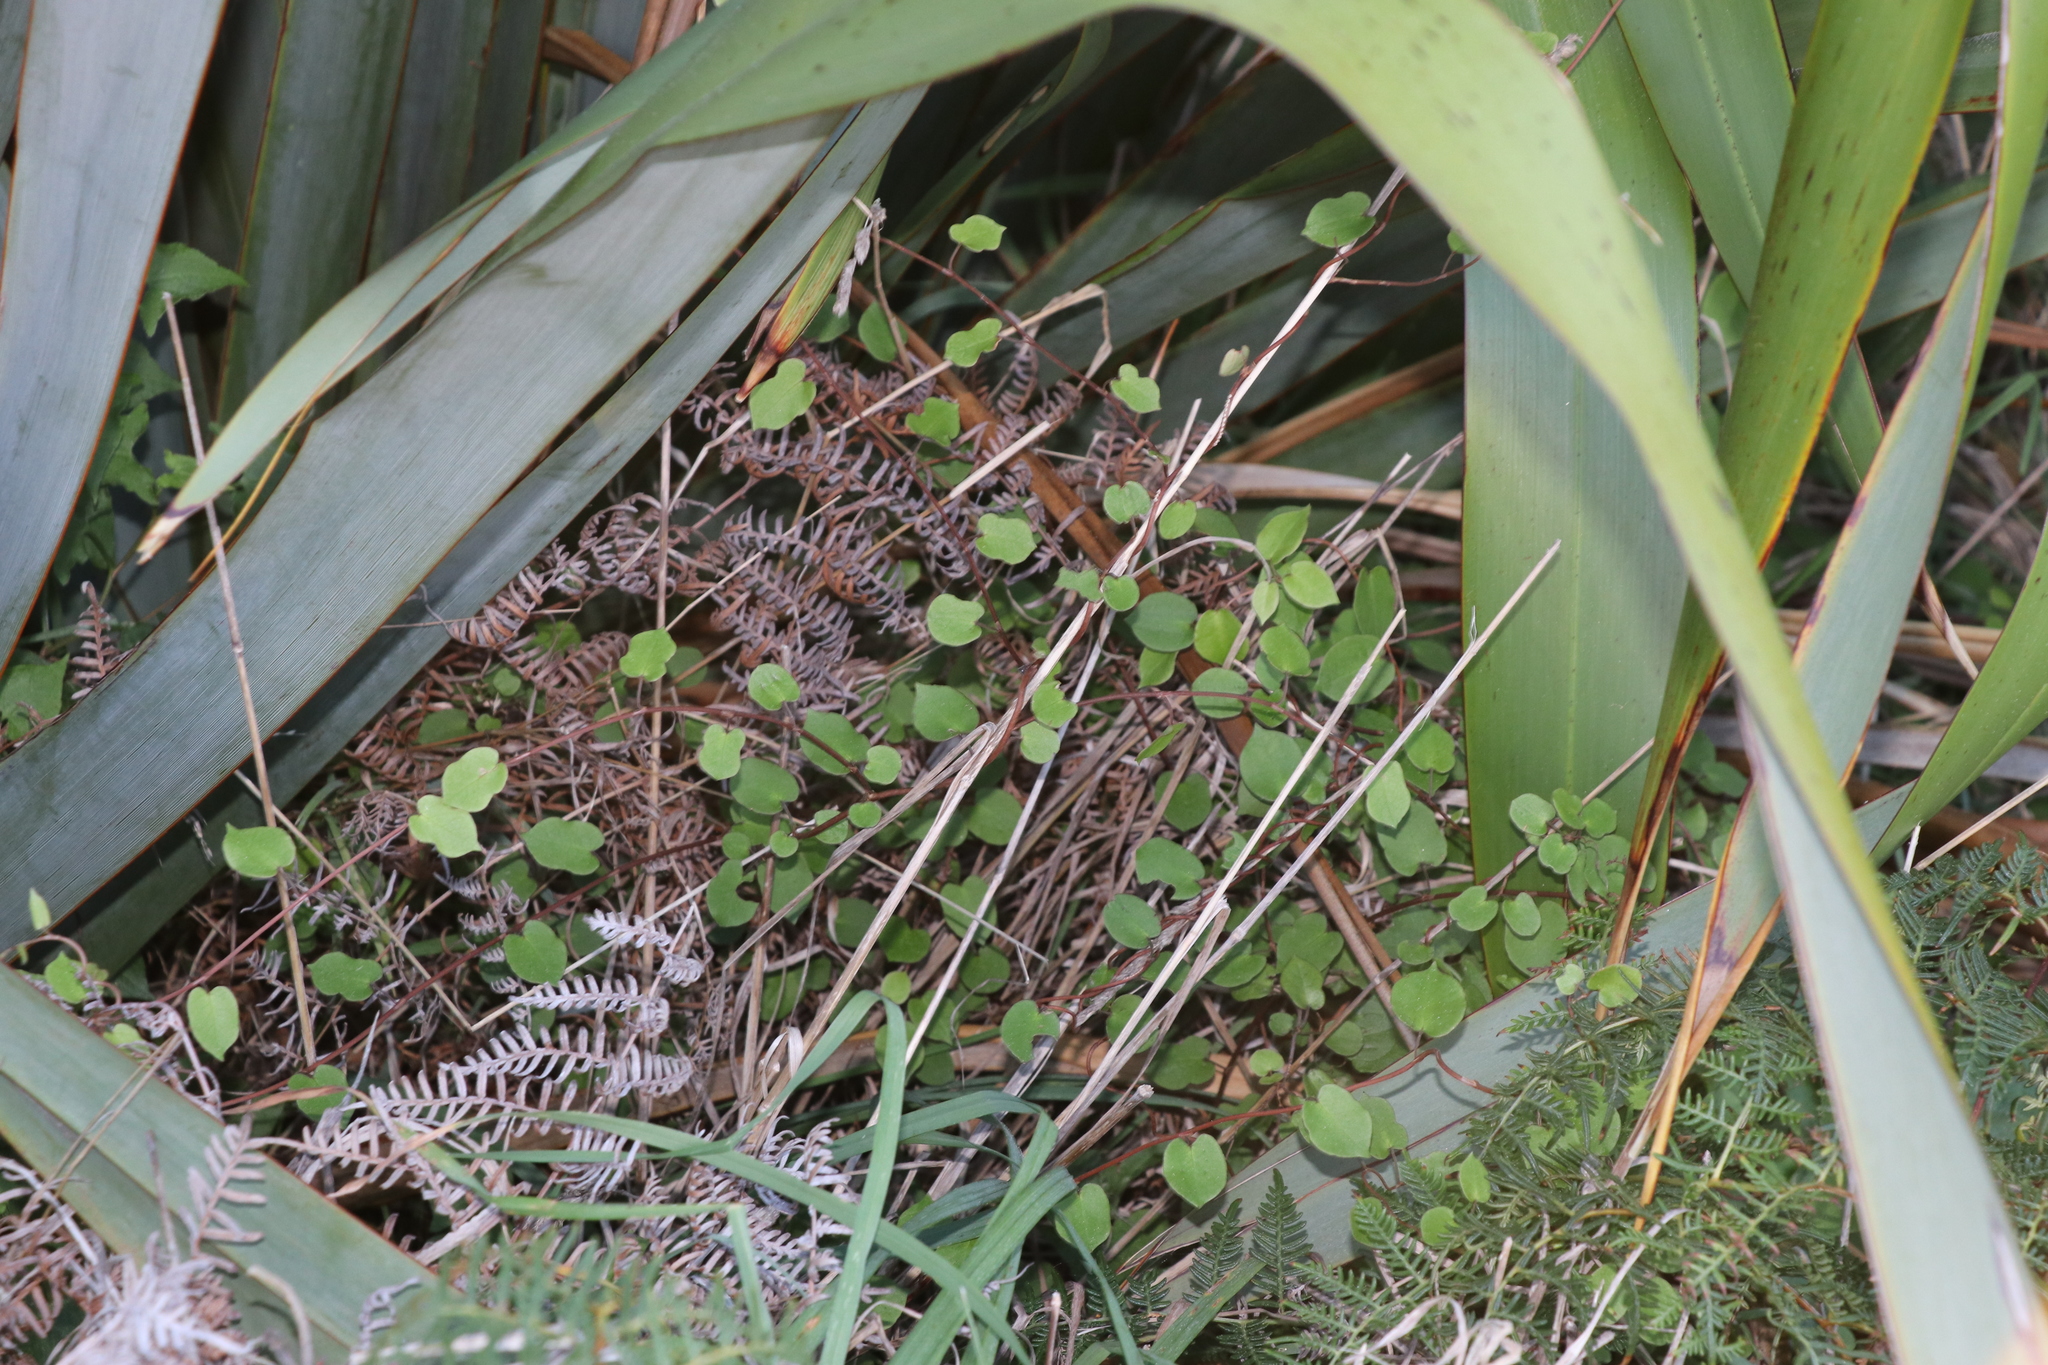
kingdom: Plantae
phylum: Tracheophyta
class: Magnoliopsida
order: Caryophyllales
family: Polygonaceae
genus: Muehlenbeckia
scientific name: Muehlenbeckia complexa
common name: Wireplant
